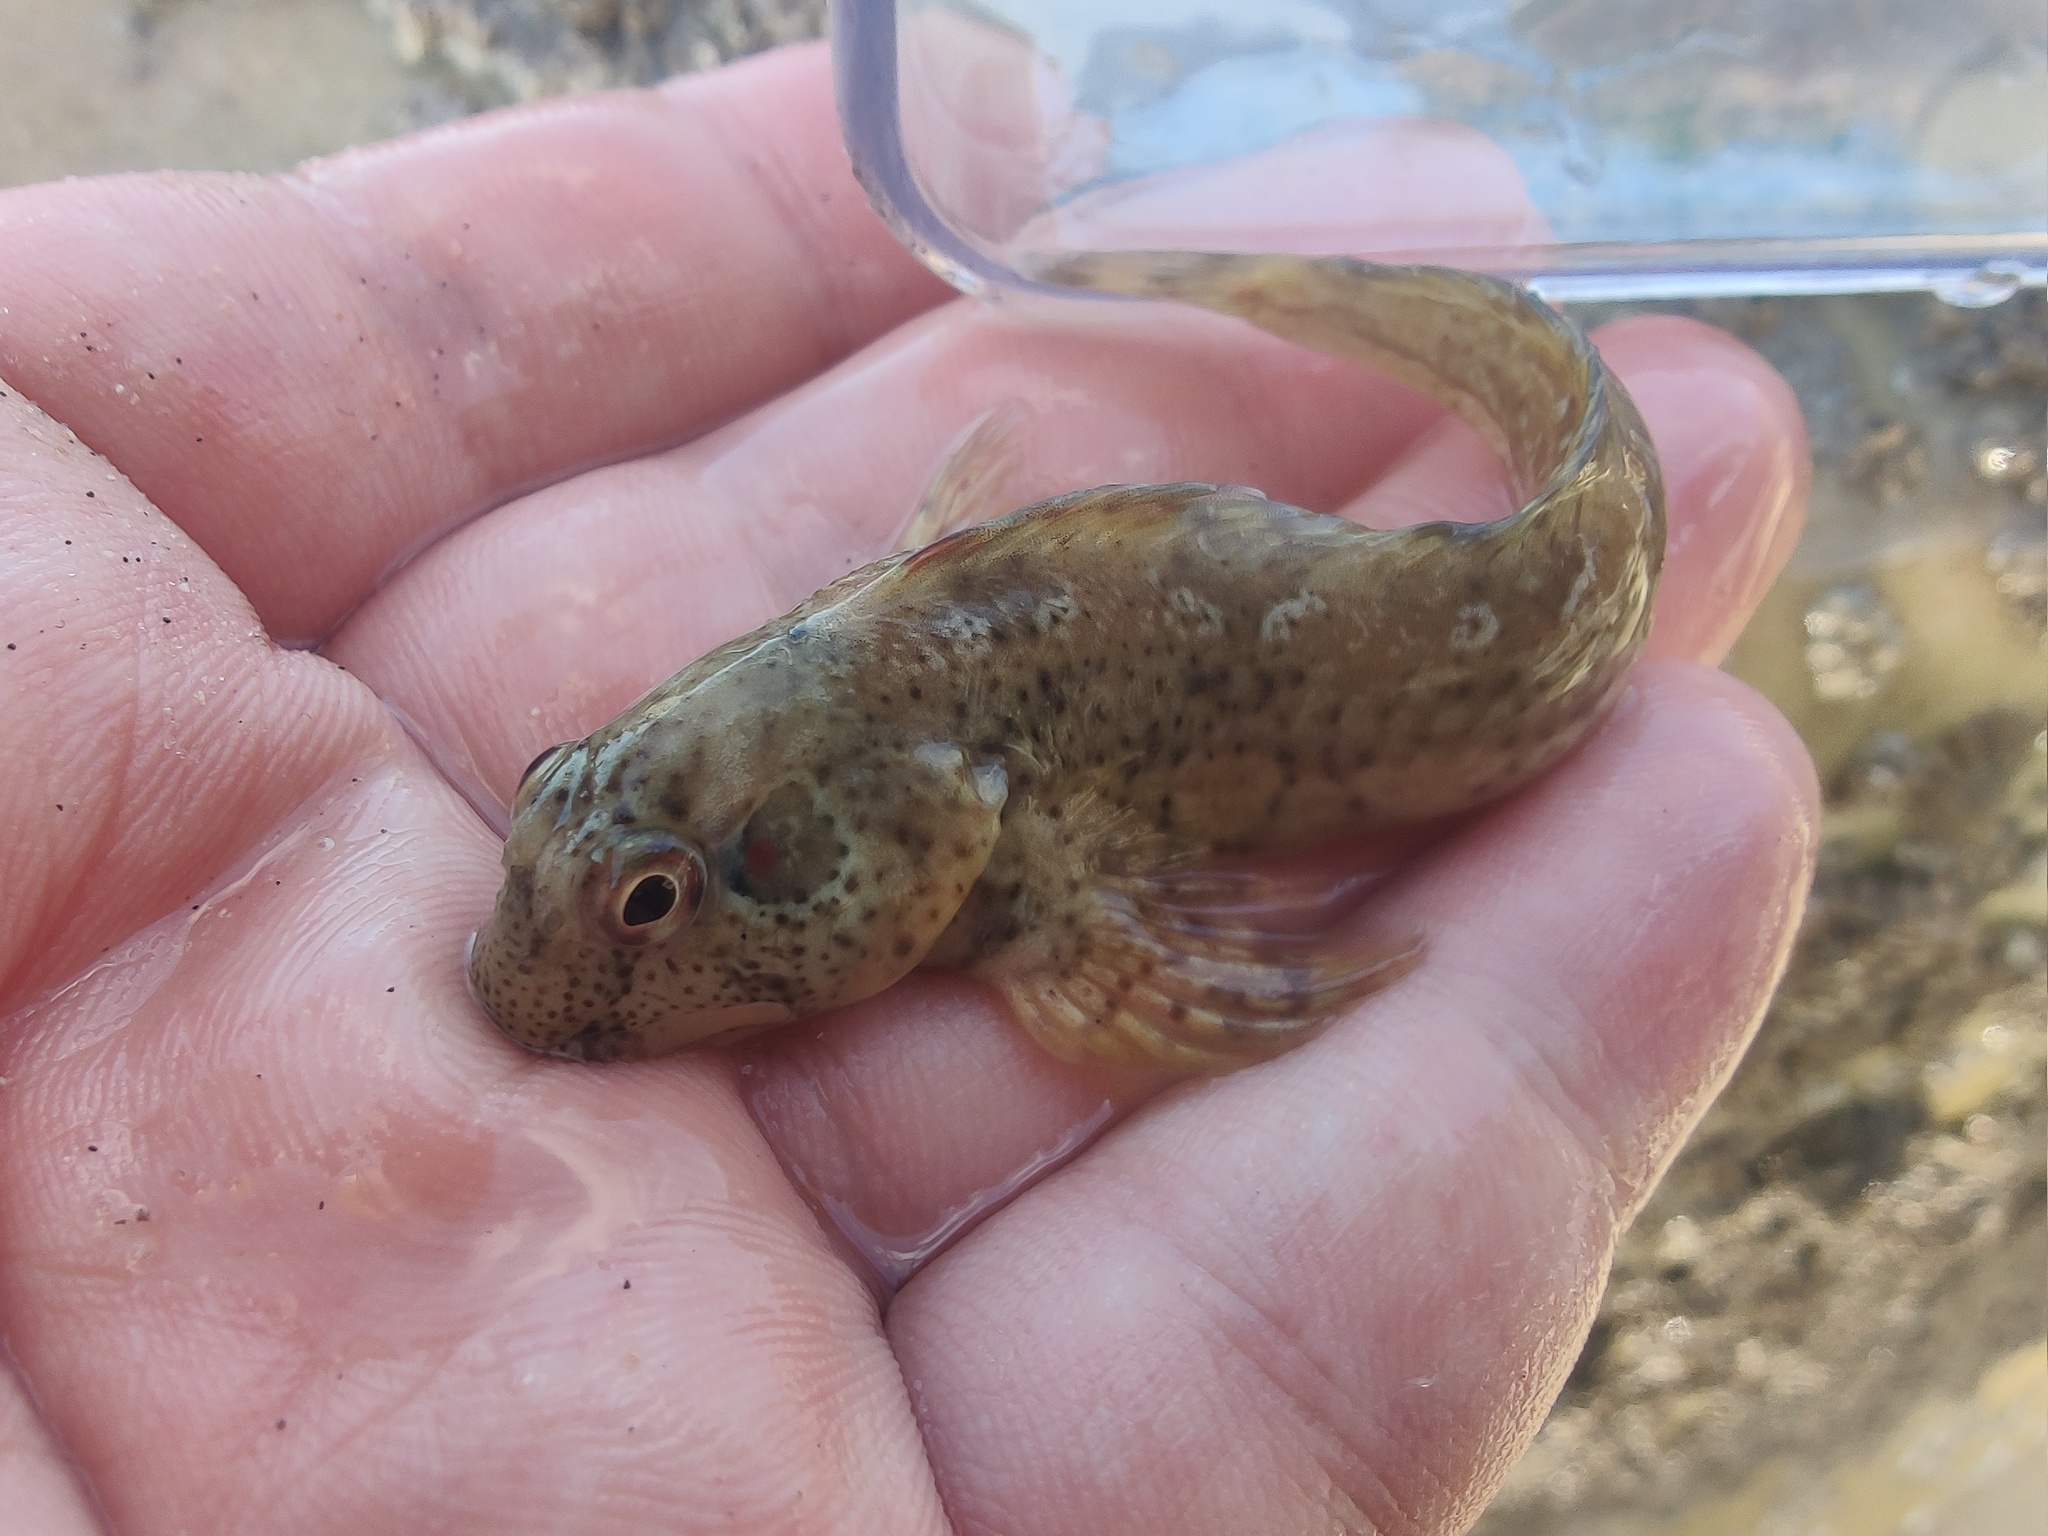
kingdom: Animalia
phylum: Chordata
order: Perciformes
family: Blenniidae
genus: Lipophrys
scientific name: Lipophrys pholis
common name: Shanny
